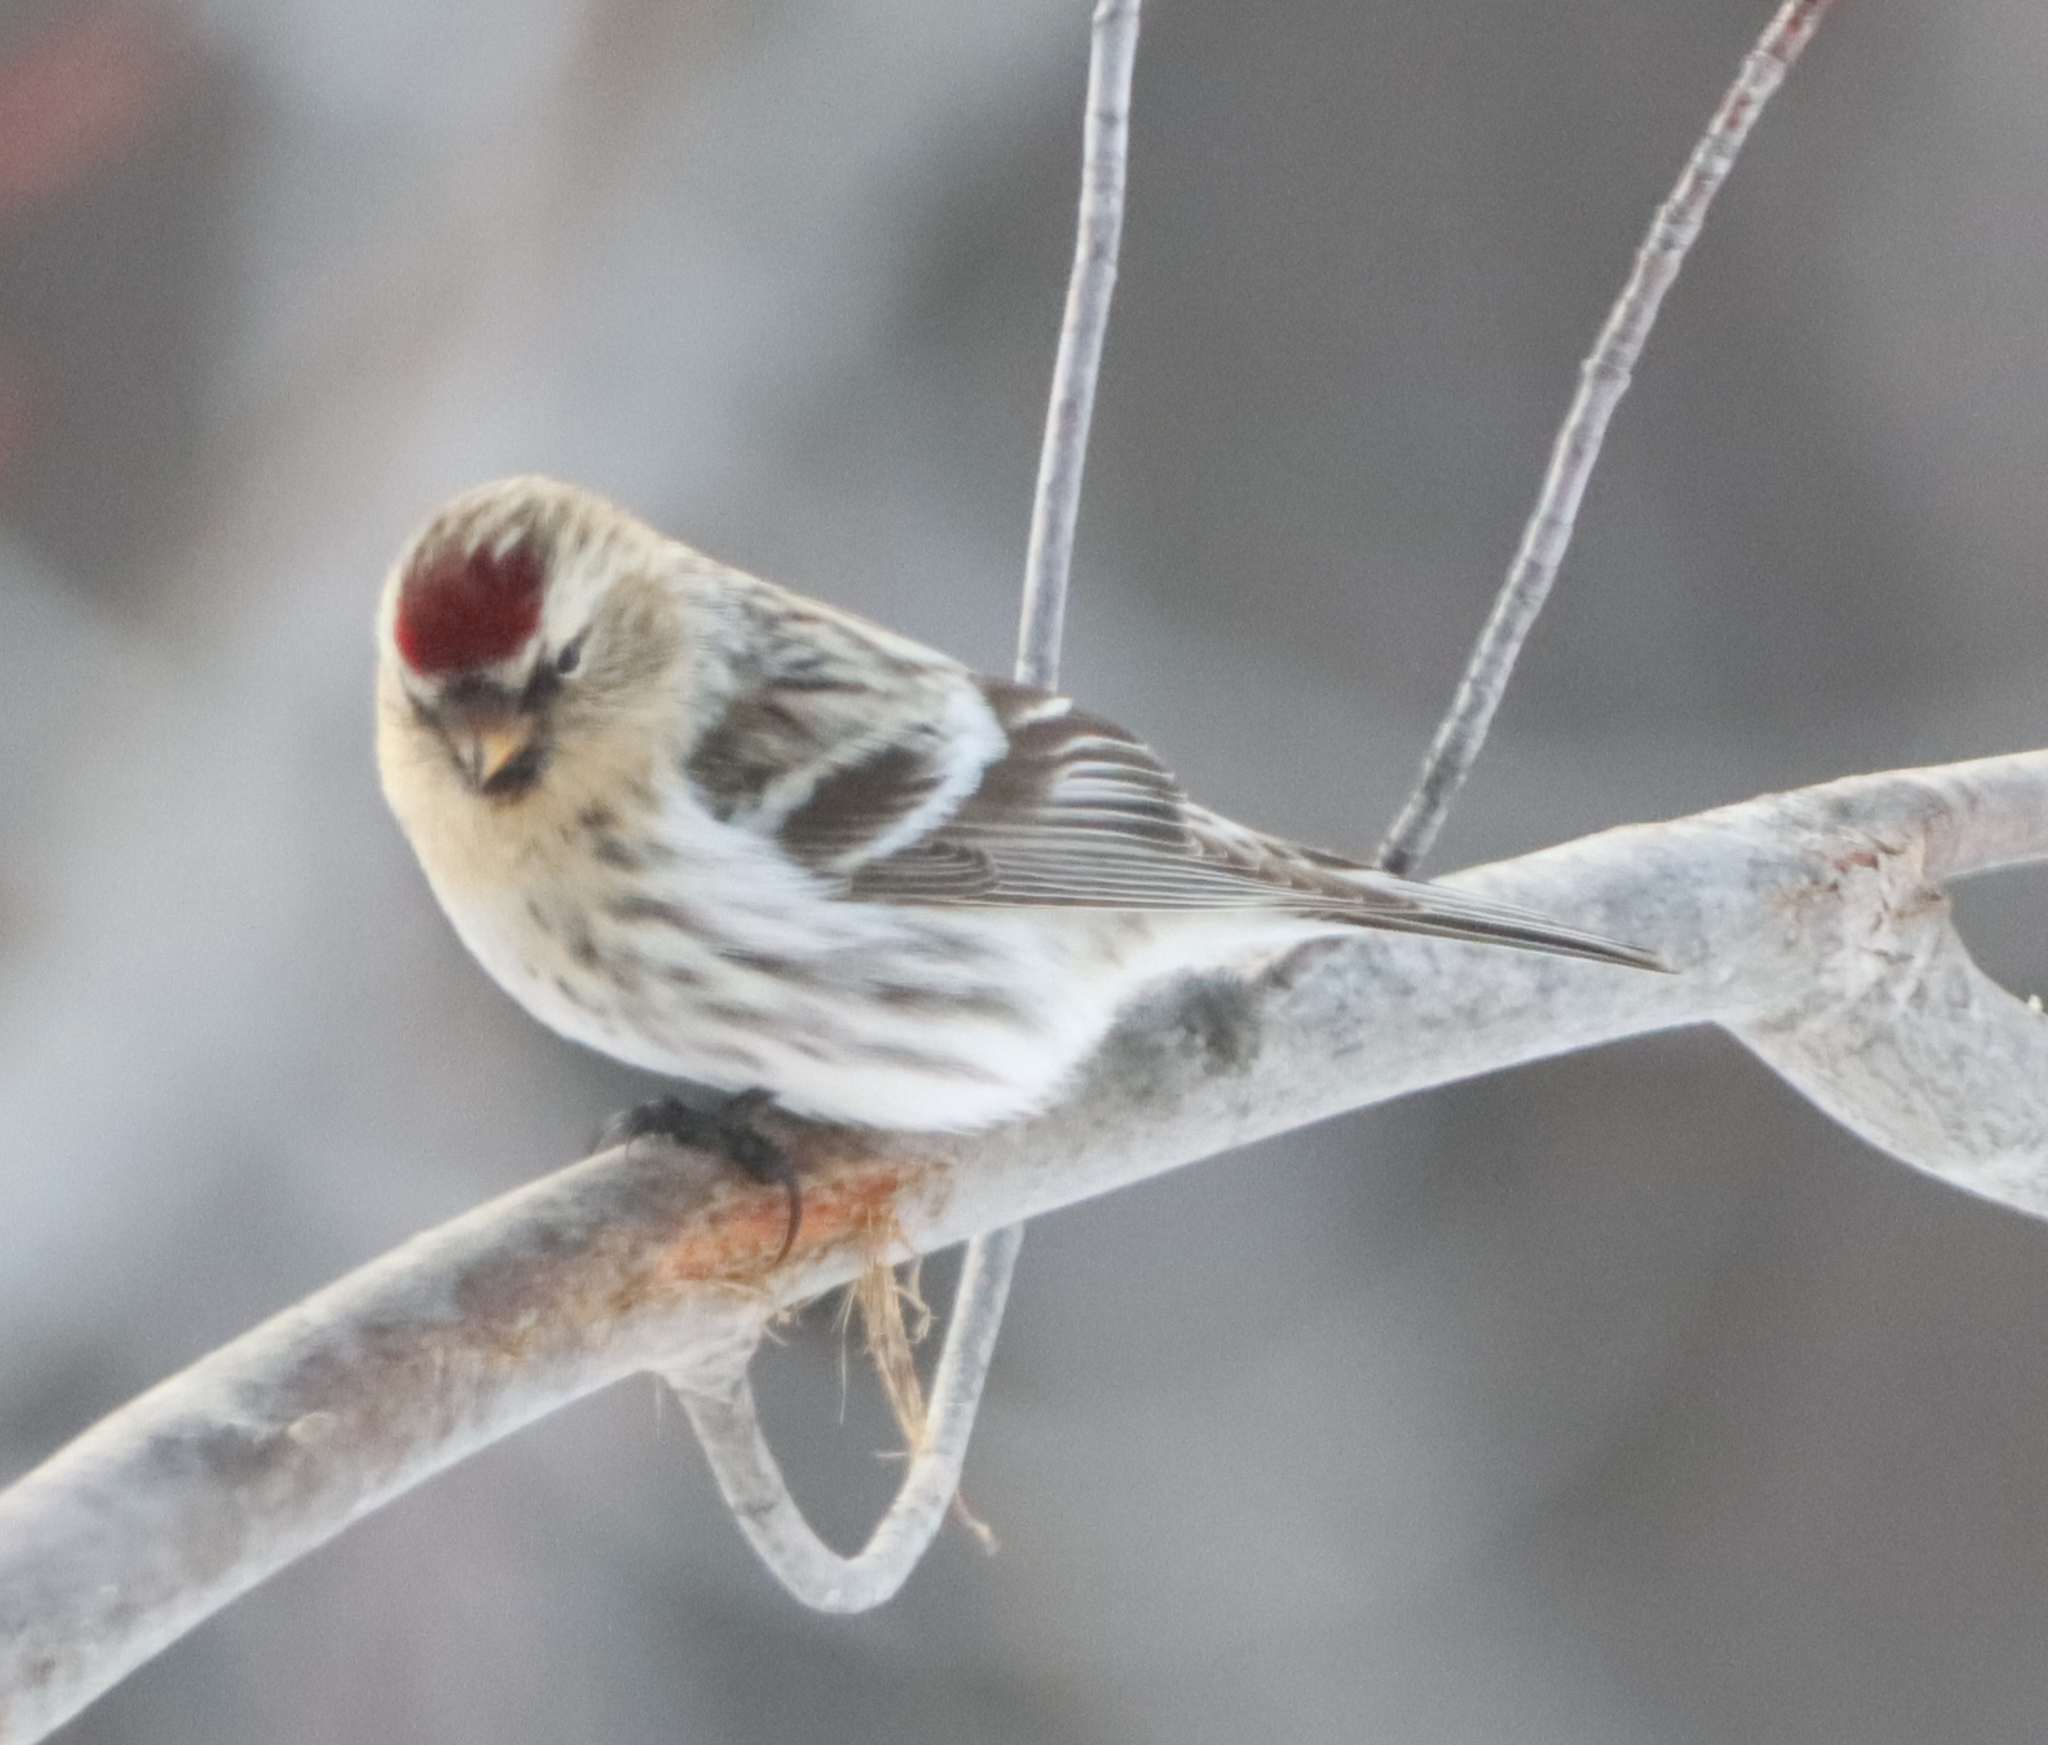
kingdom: Animalia
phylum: Chordata
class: Aves
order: Passeriformes
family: Fringillidae
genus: Acanthis
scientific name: Acanthis flammea
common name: Common redpoll
